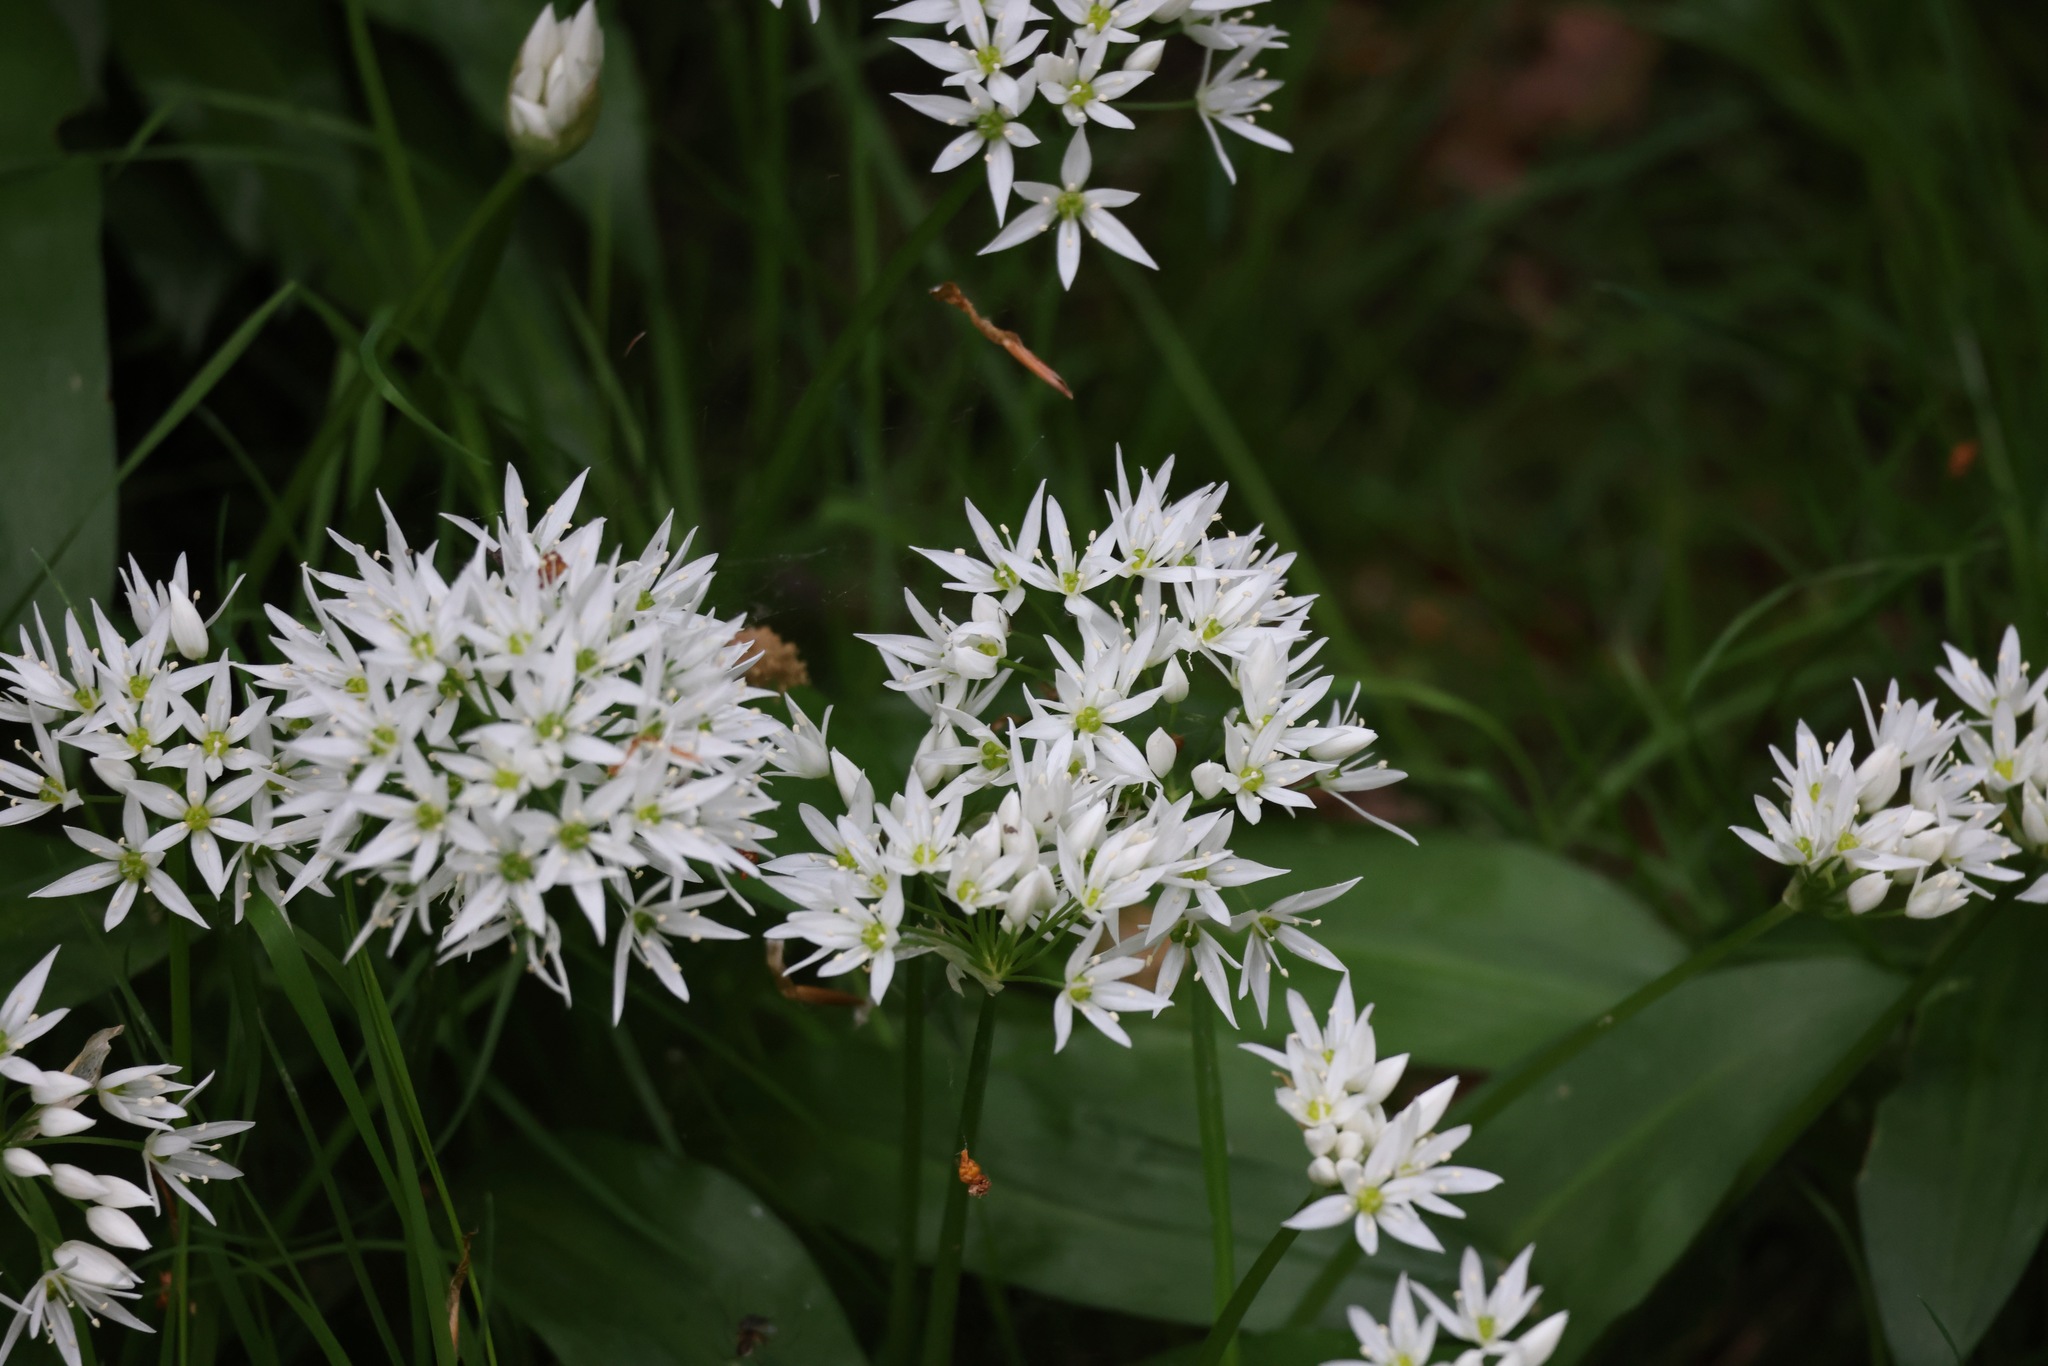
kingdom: Plantae
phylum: Tracheophyta
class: Liliopsida
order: Asparagales
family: Amaryllidaceae
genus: Allium
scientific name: Allium ursinum
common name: Ramsons
